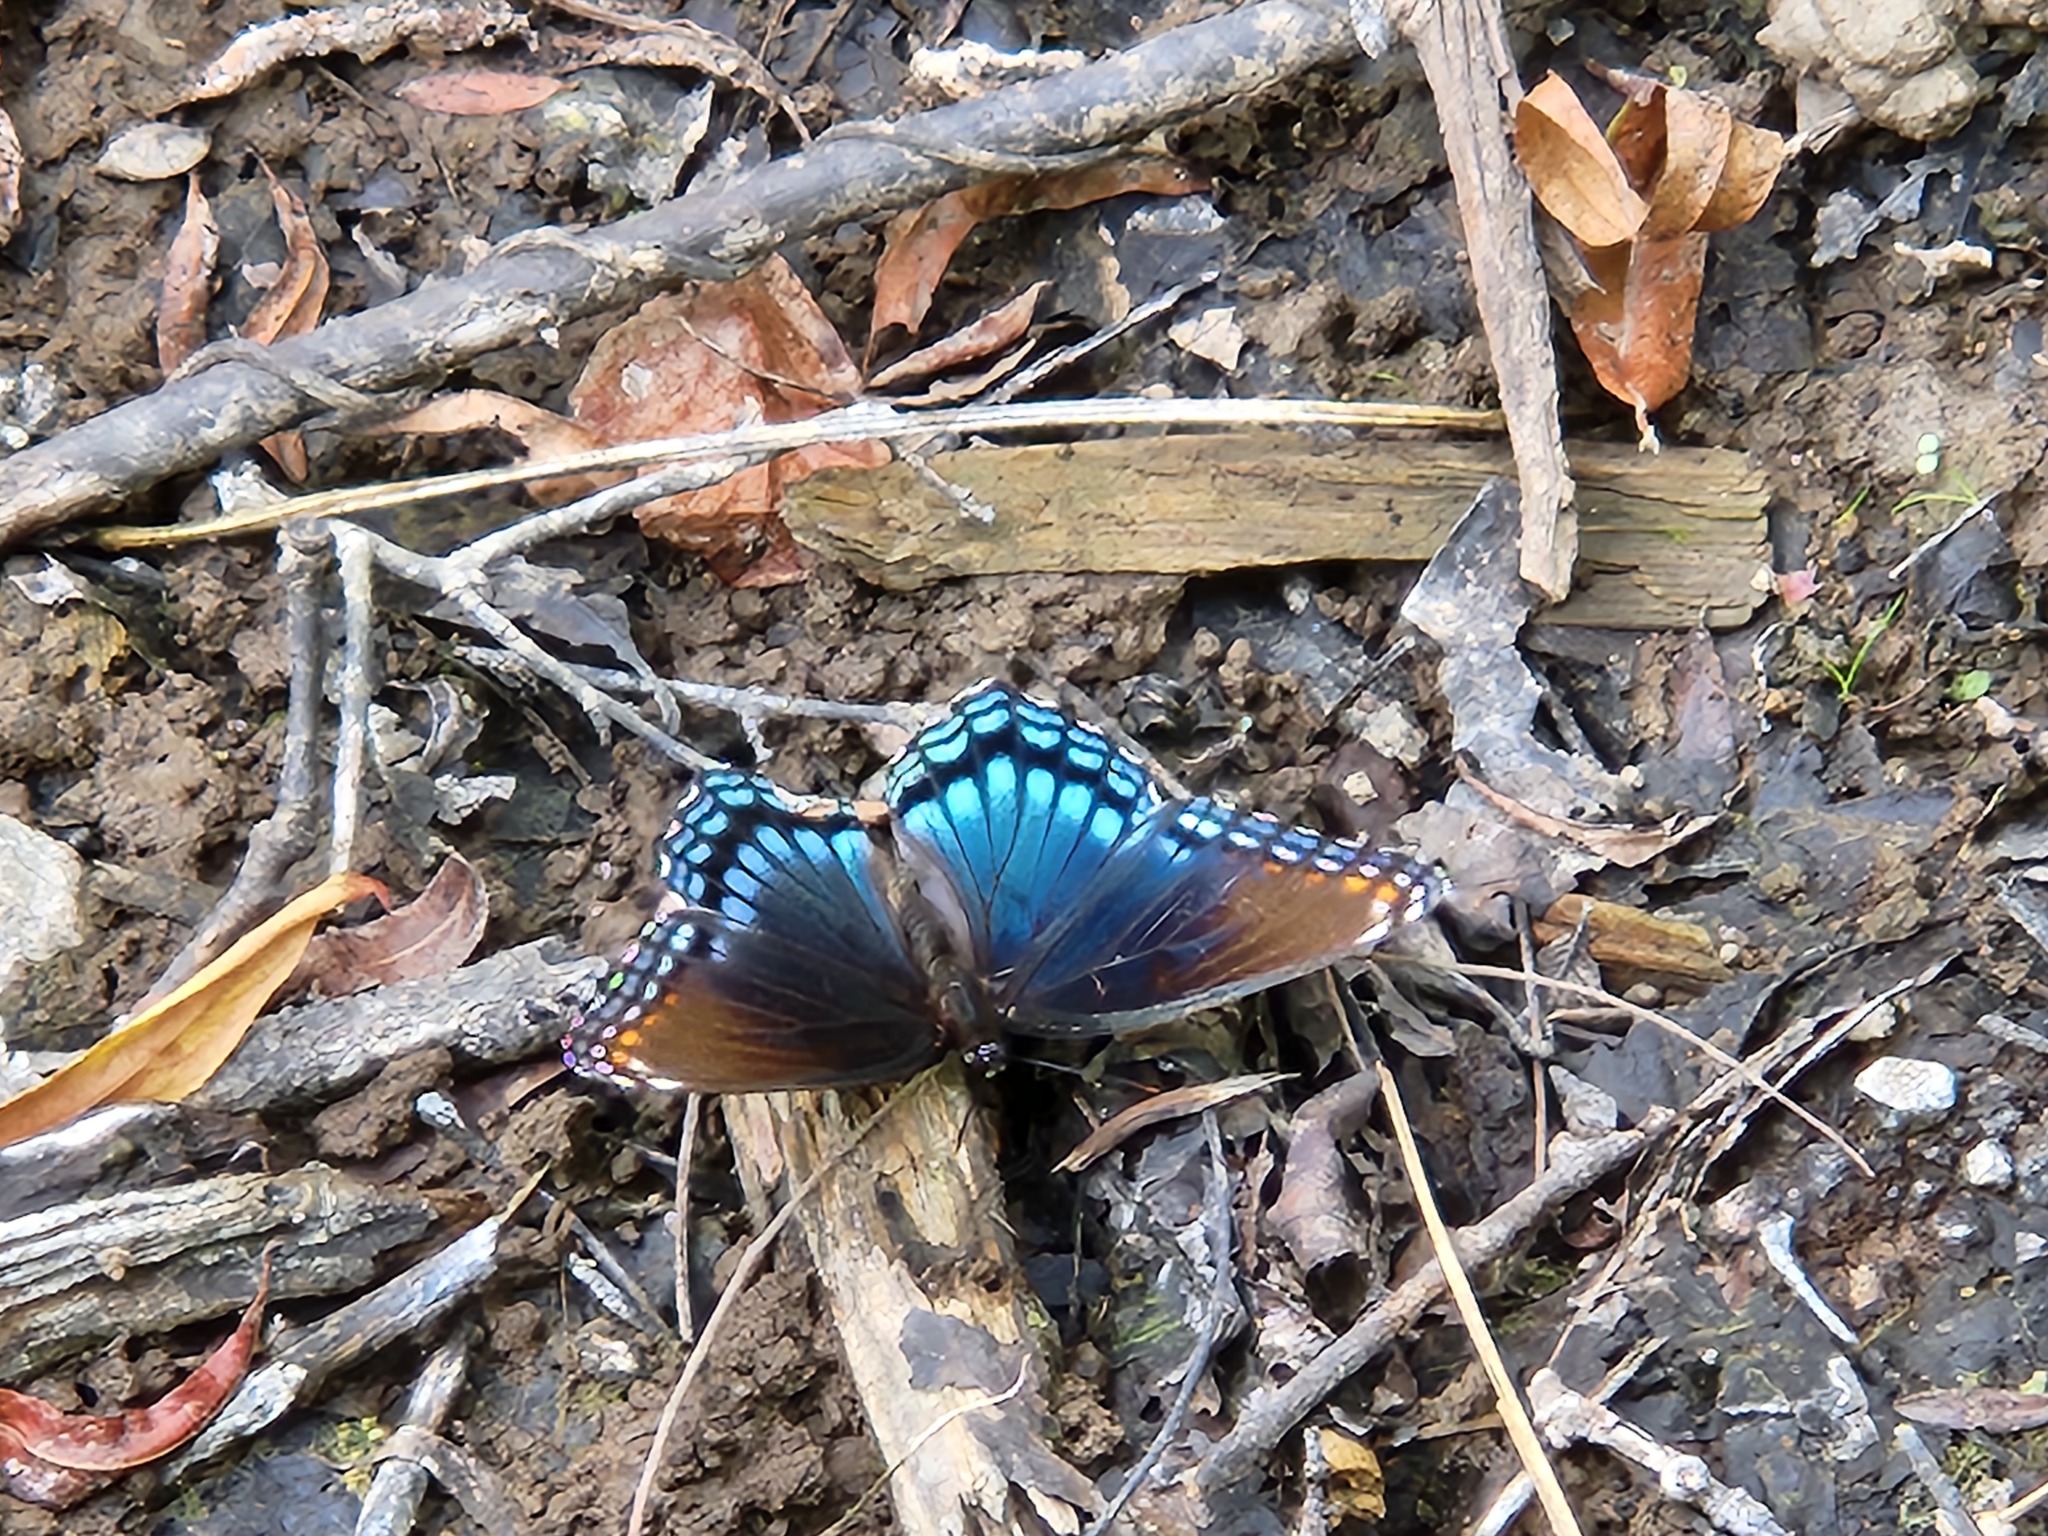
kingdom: Animalia
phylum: Arthropoda
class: Insecta
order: Lepidoptera
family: Nymphalidae
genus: Limenitis
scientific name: Limenitis arthemis
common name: Red-spotted admiral
